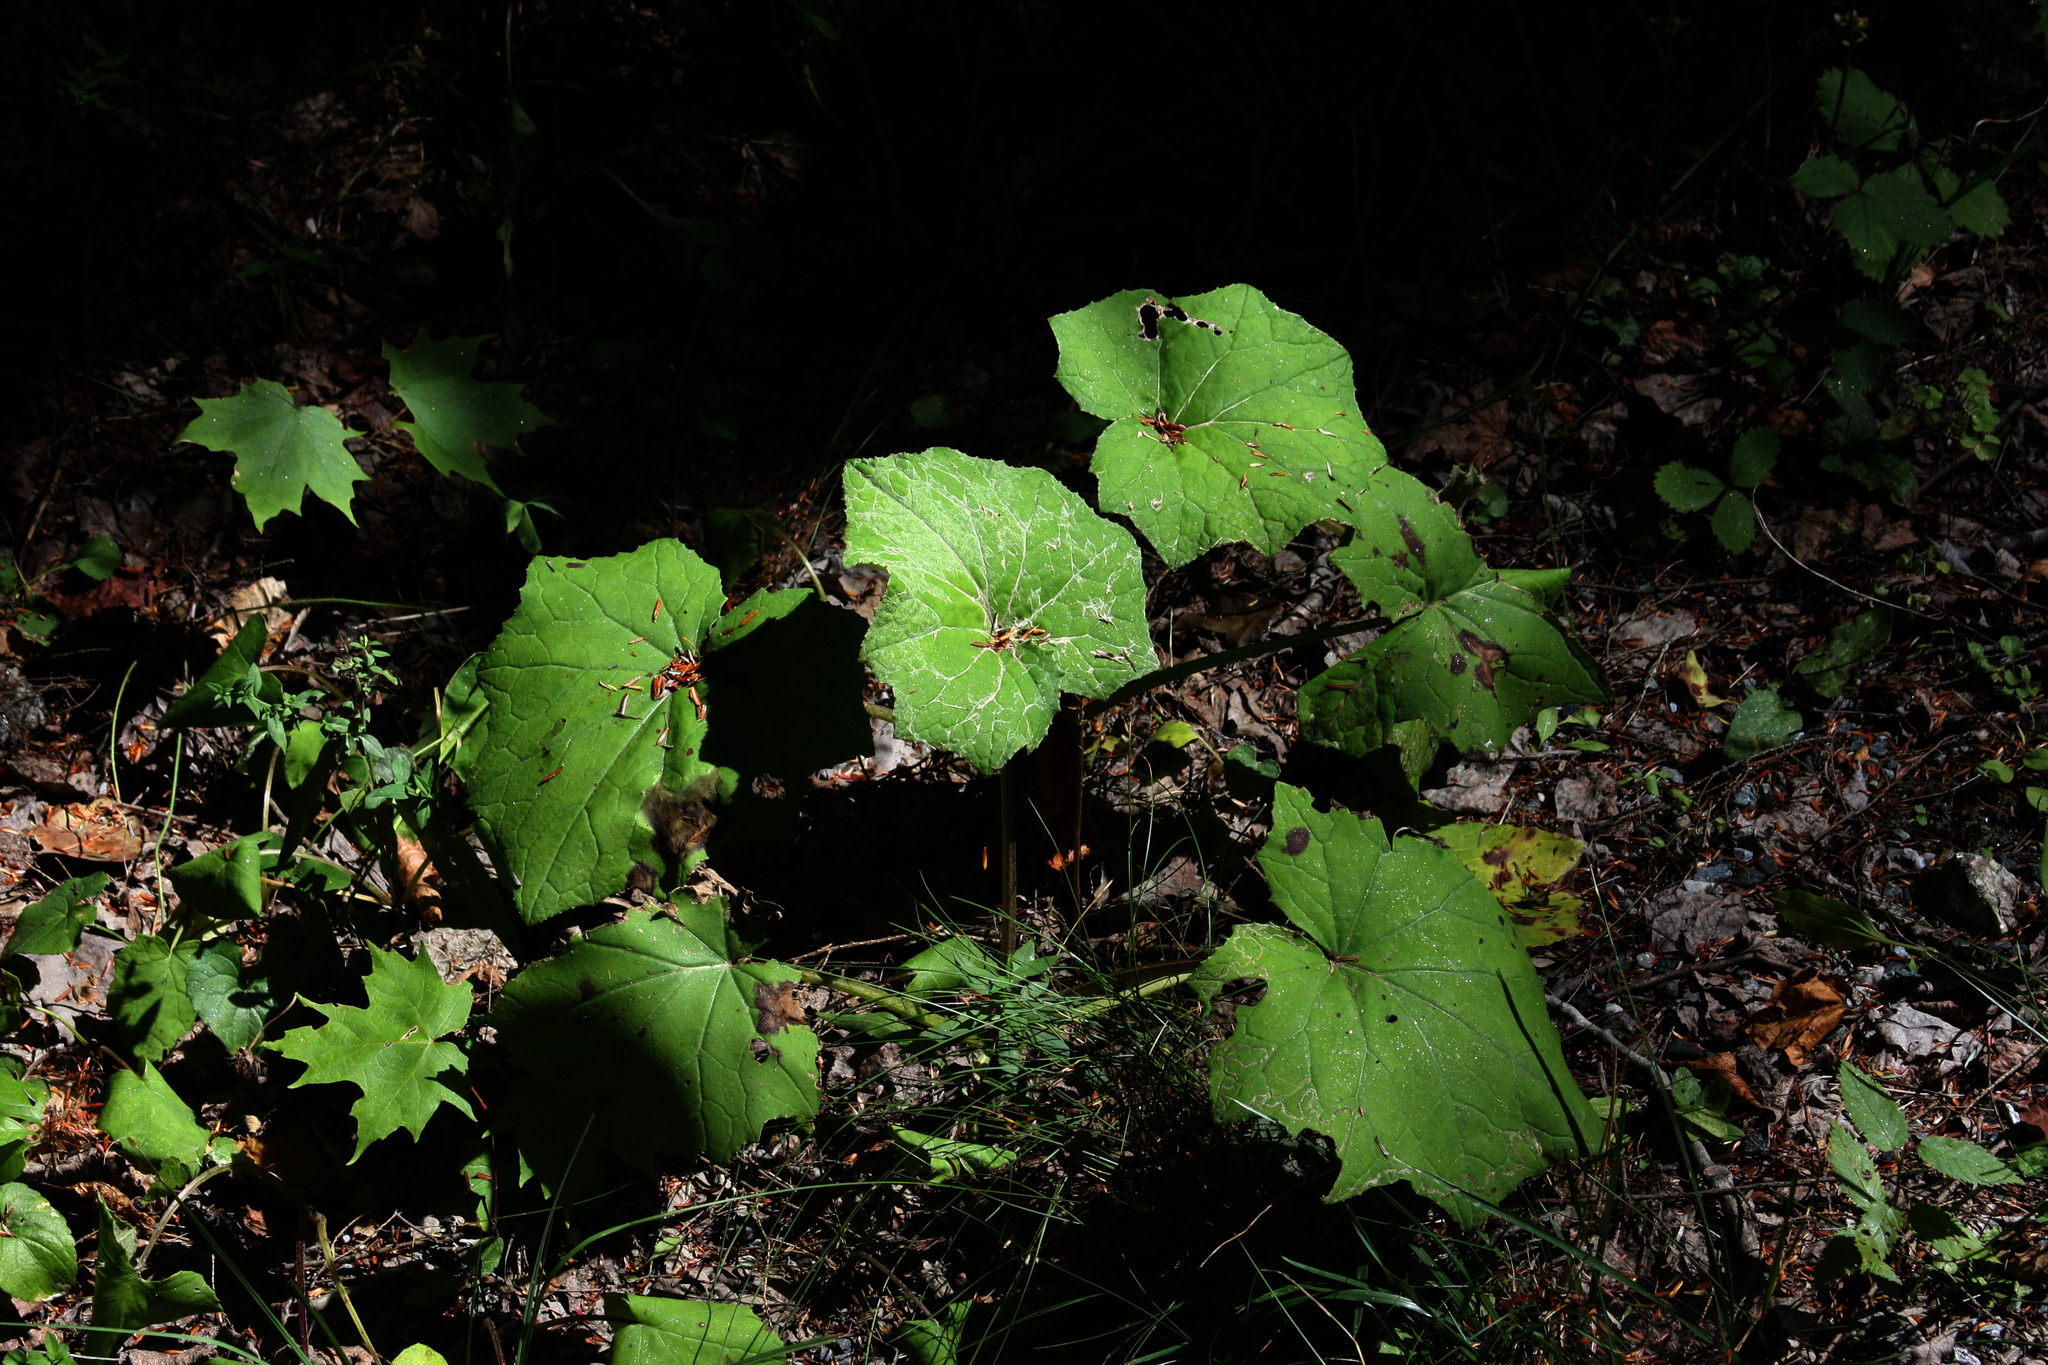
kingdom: Plantae
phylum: Tracheophyta
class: Magnoliopsida
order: Asterales
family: Asteraceae
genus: Tussilago
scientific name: Tussilago farfara
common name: Coltsfoot
